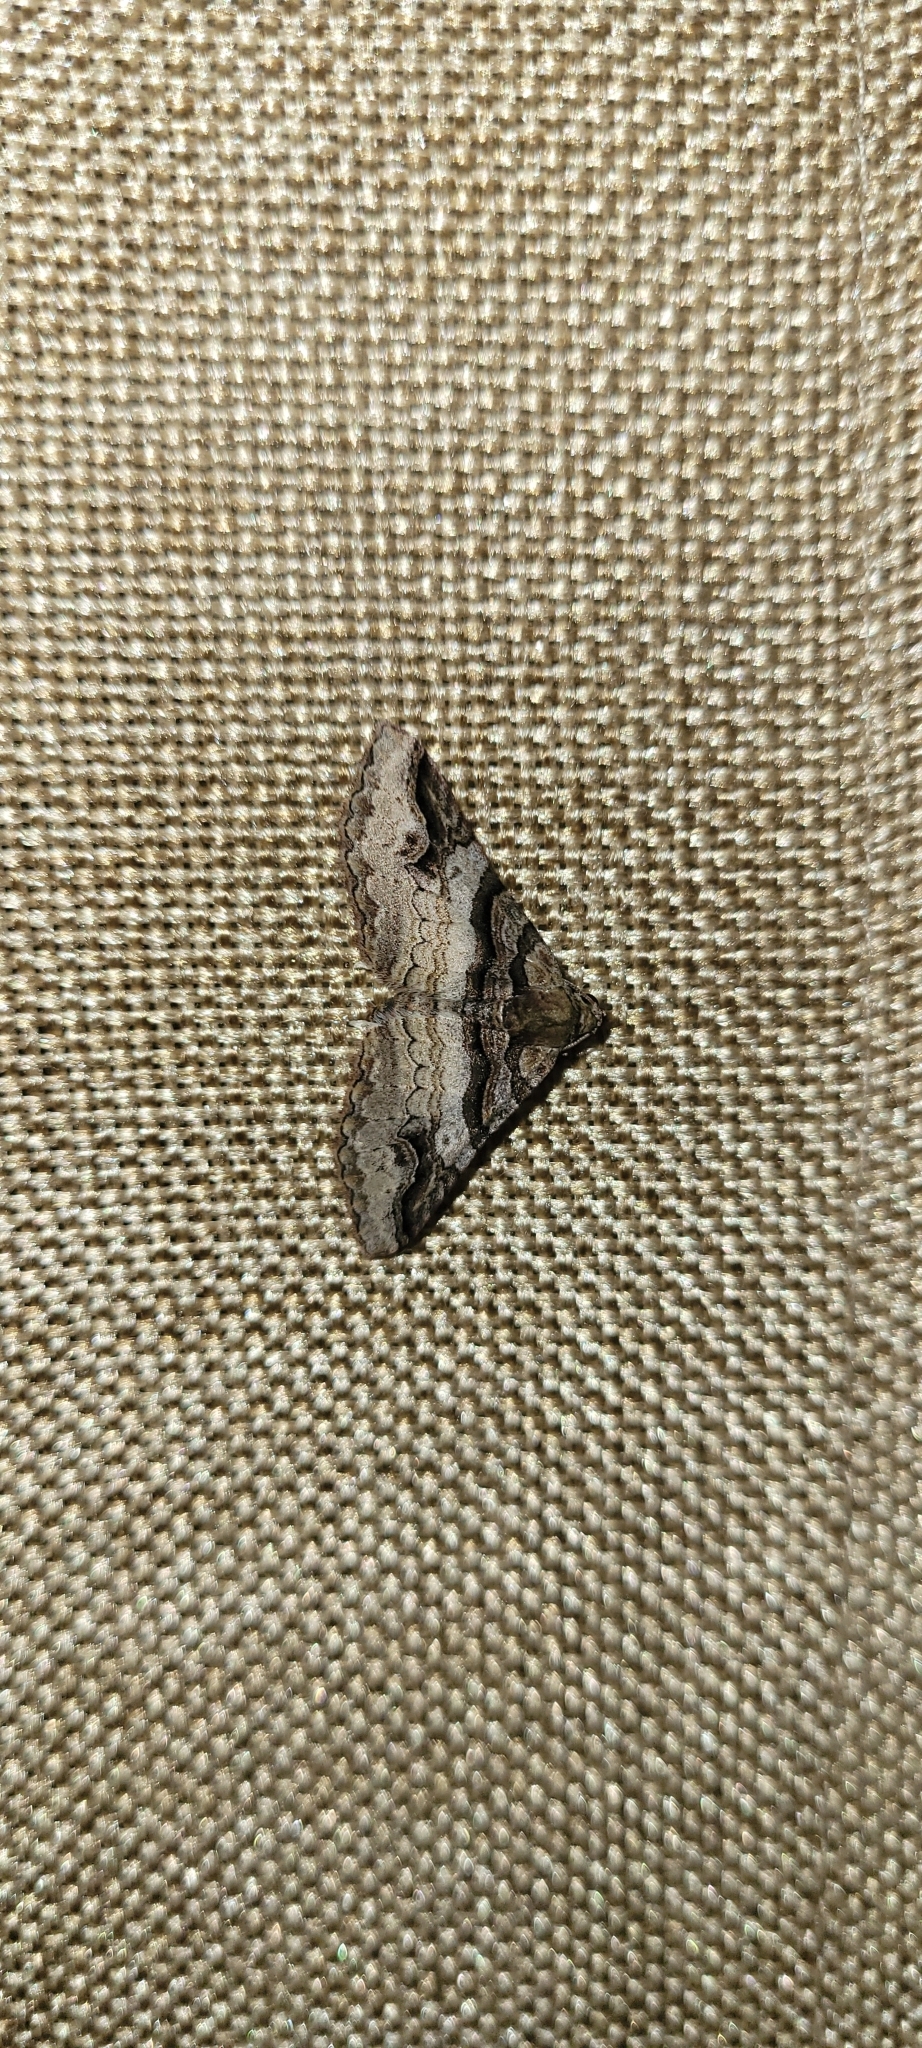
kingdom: Animalia
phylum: Arthropoda
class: Insecta
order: Lepidoptera
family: Geometridae
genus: Triptiloides
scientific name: Triptiloides fissa
